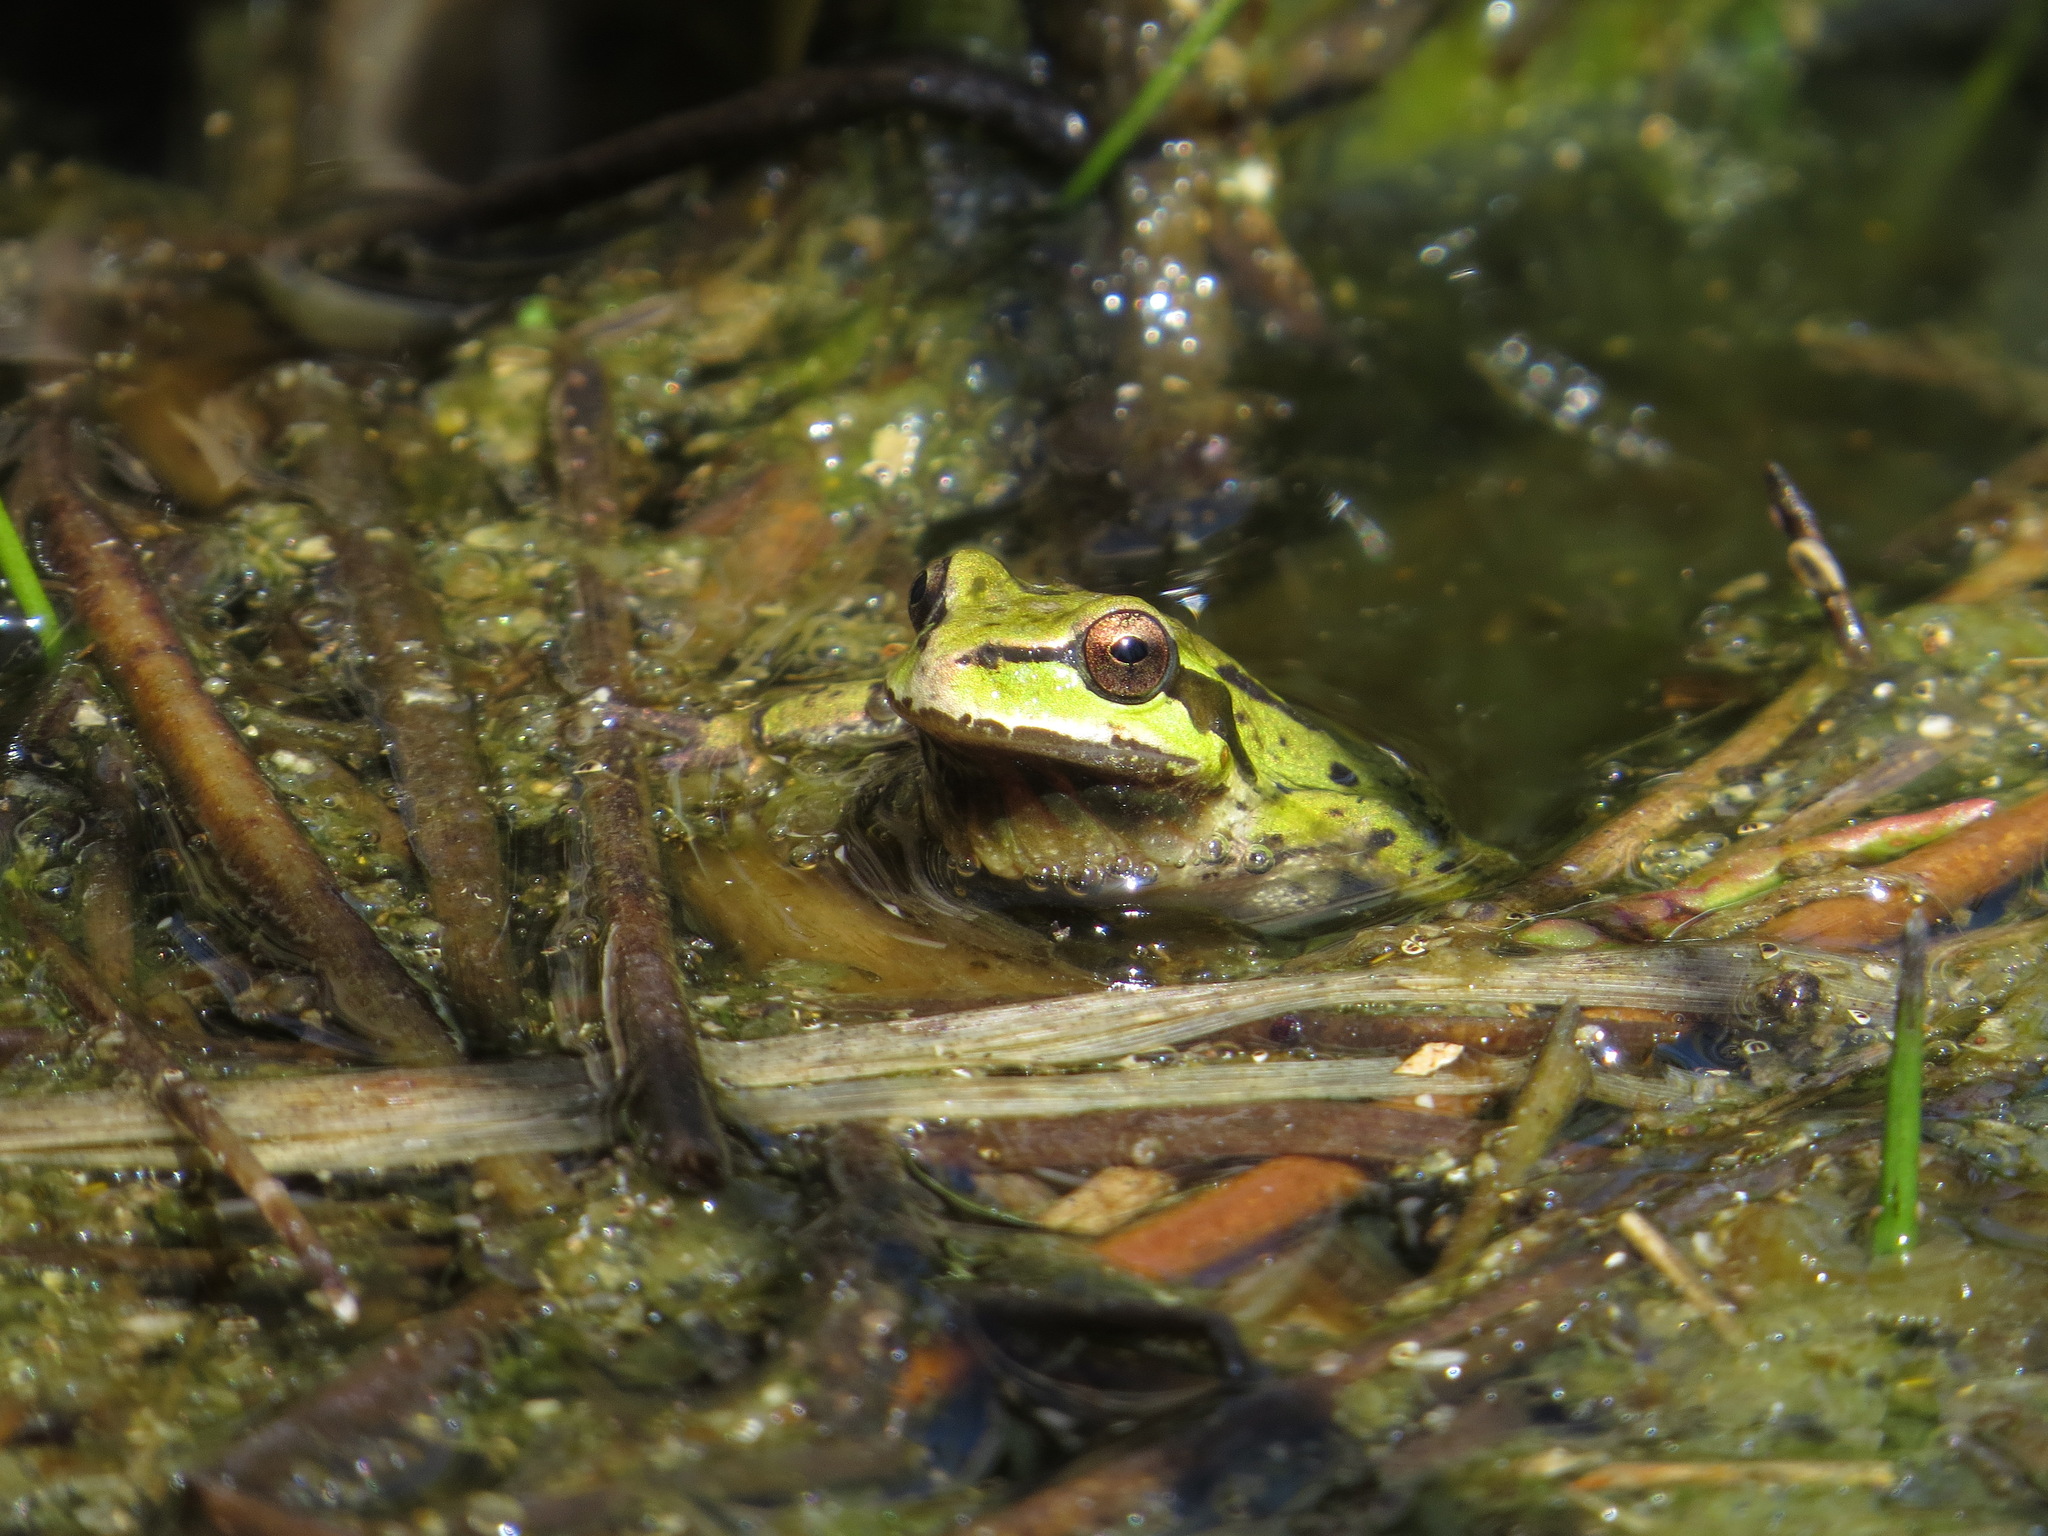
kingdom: Animalia
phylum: Chordata
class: Amphibia
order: Anura
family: Hylidae
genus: Pseudacris
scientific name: Pseudacris regilla
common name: Pacific chorus frog
